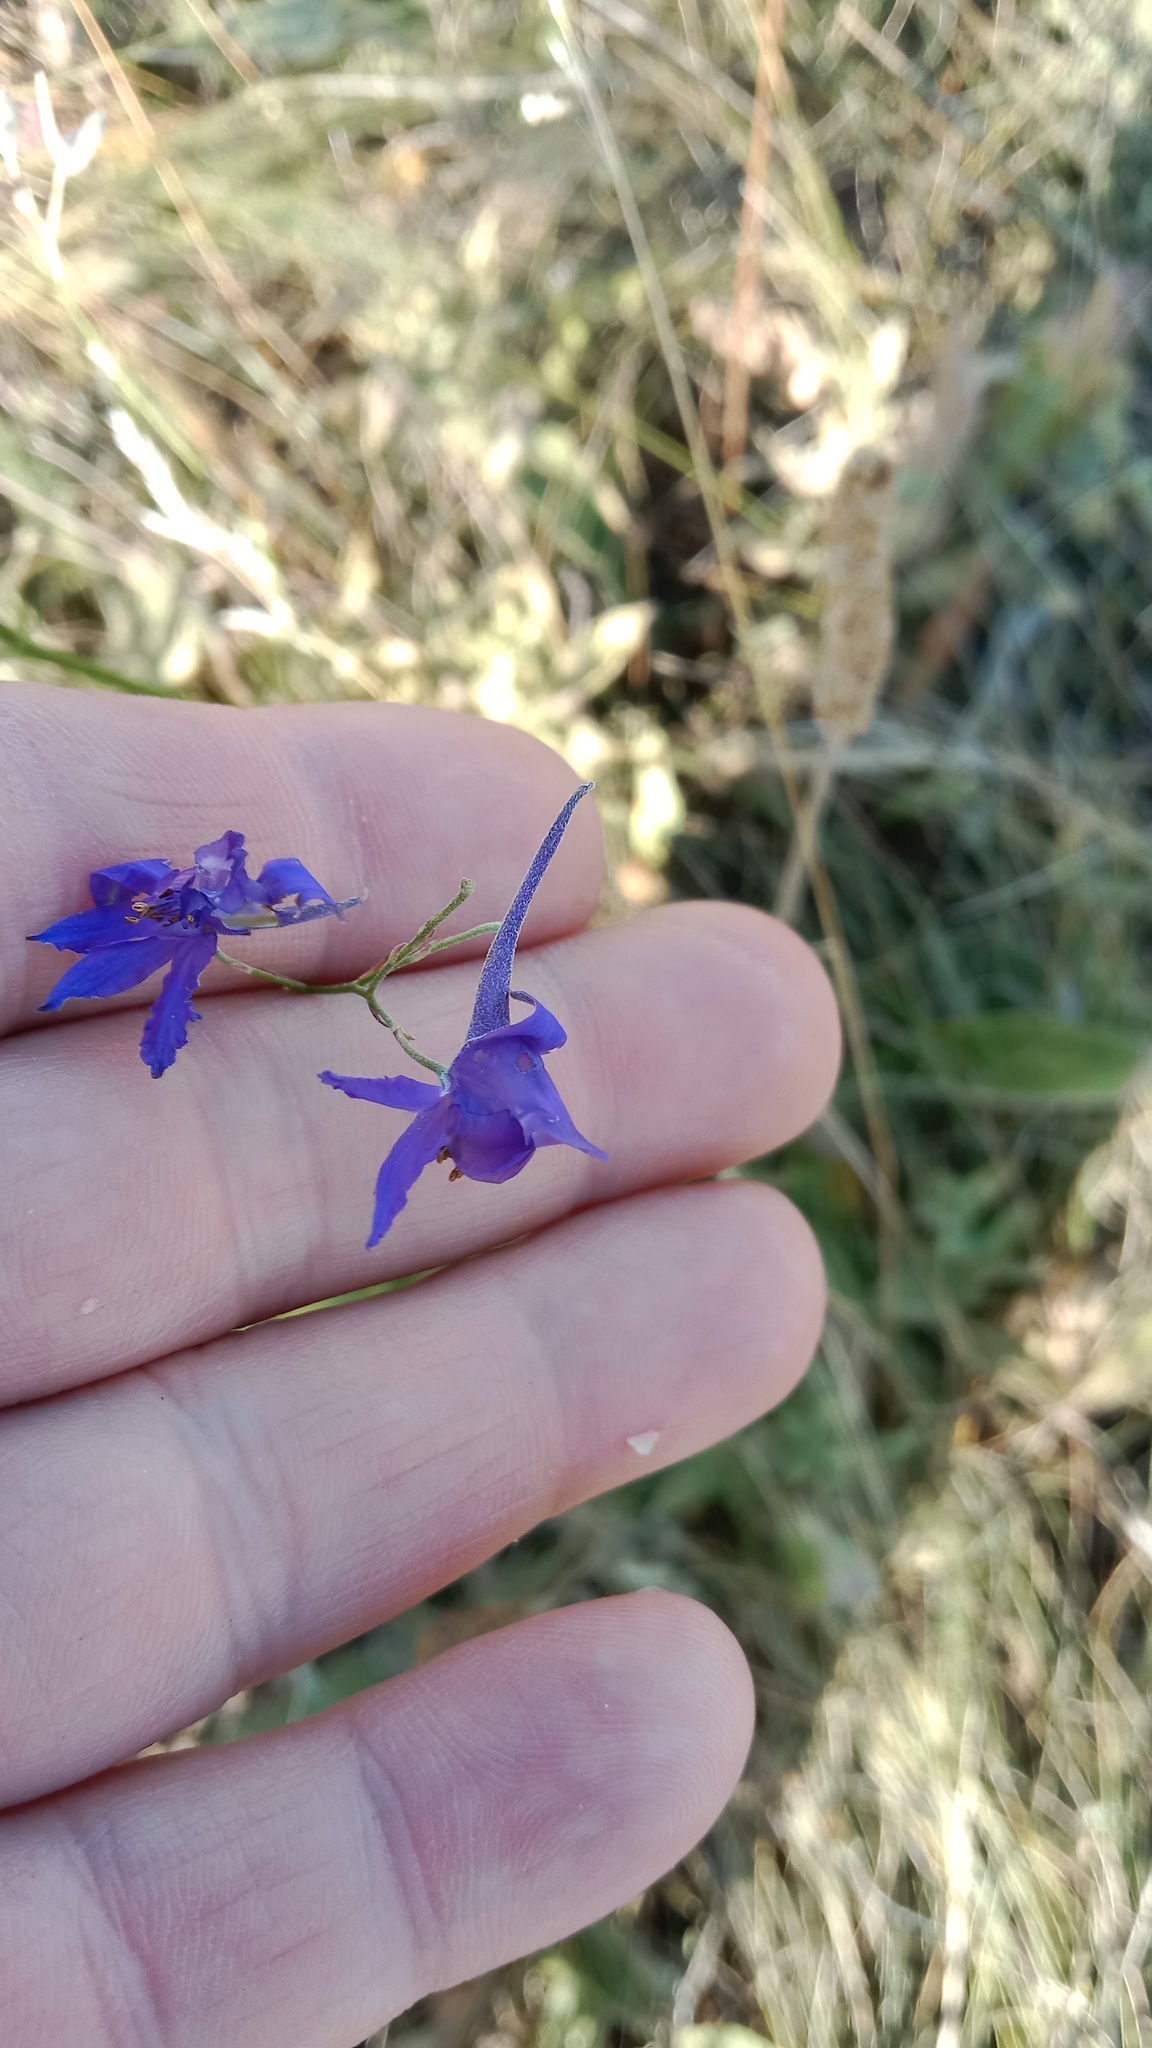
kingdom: Plantae
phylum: Tracheophyta
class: Magnoliopsida
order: Ranunculales
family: Ranunculaceae
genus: Delphinium
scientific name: Delphinium consolida
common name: Branching larkspur
